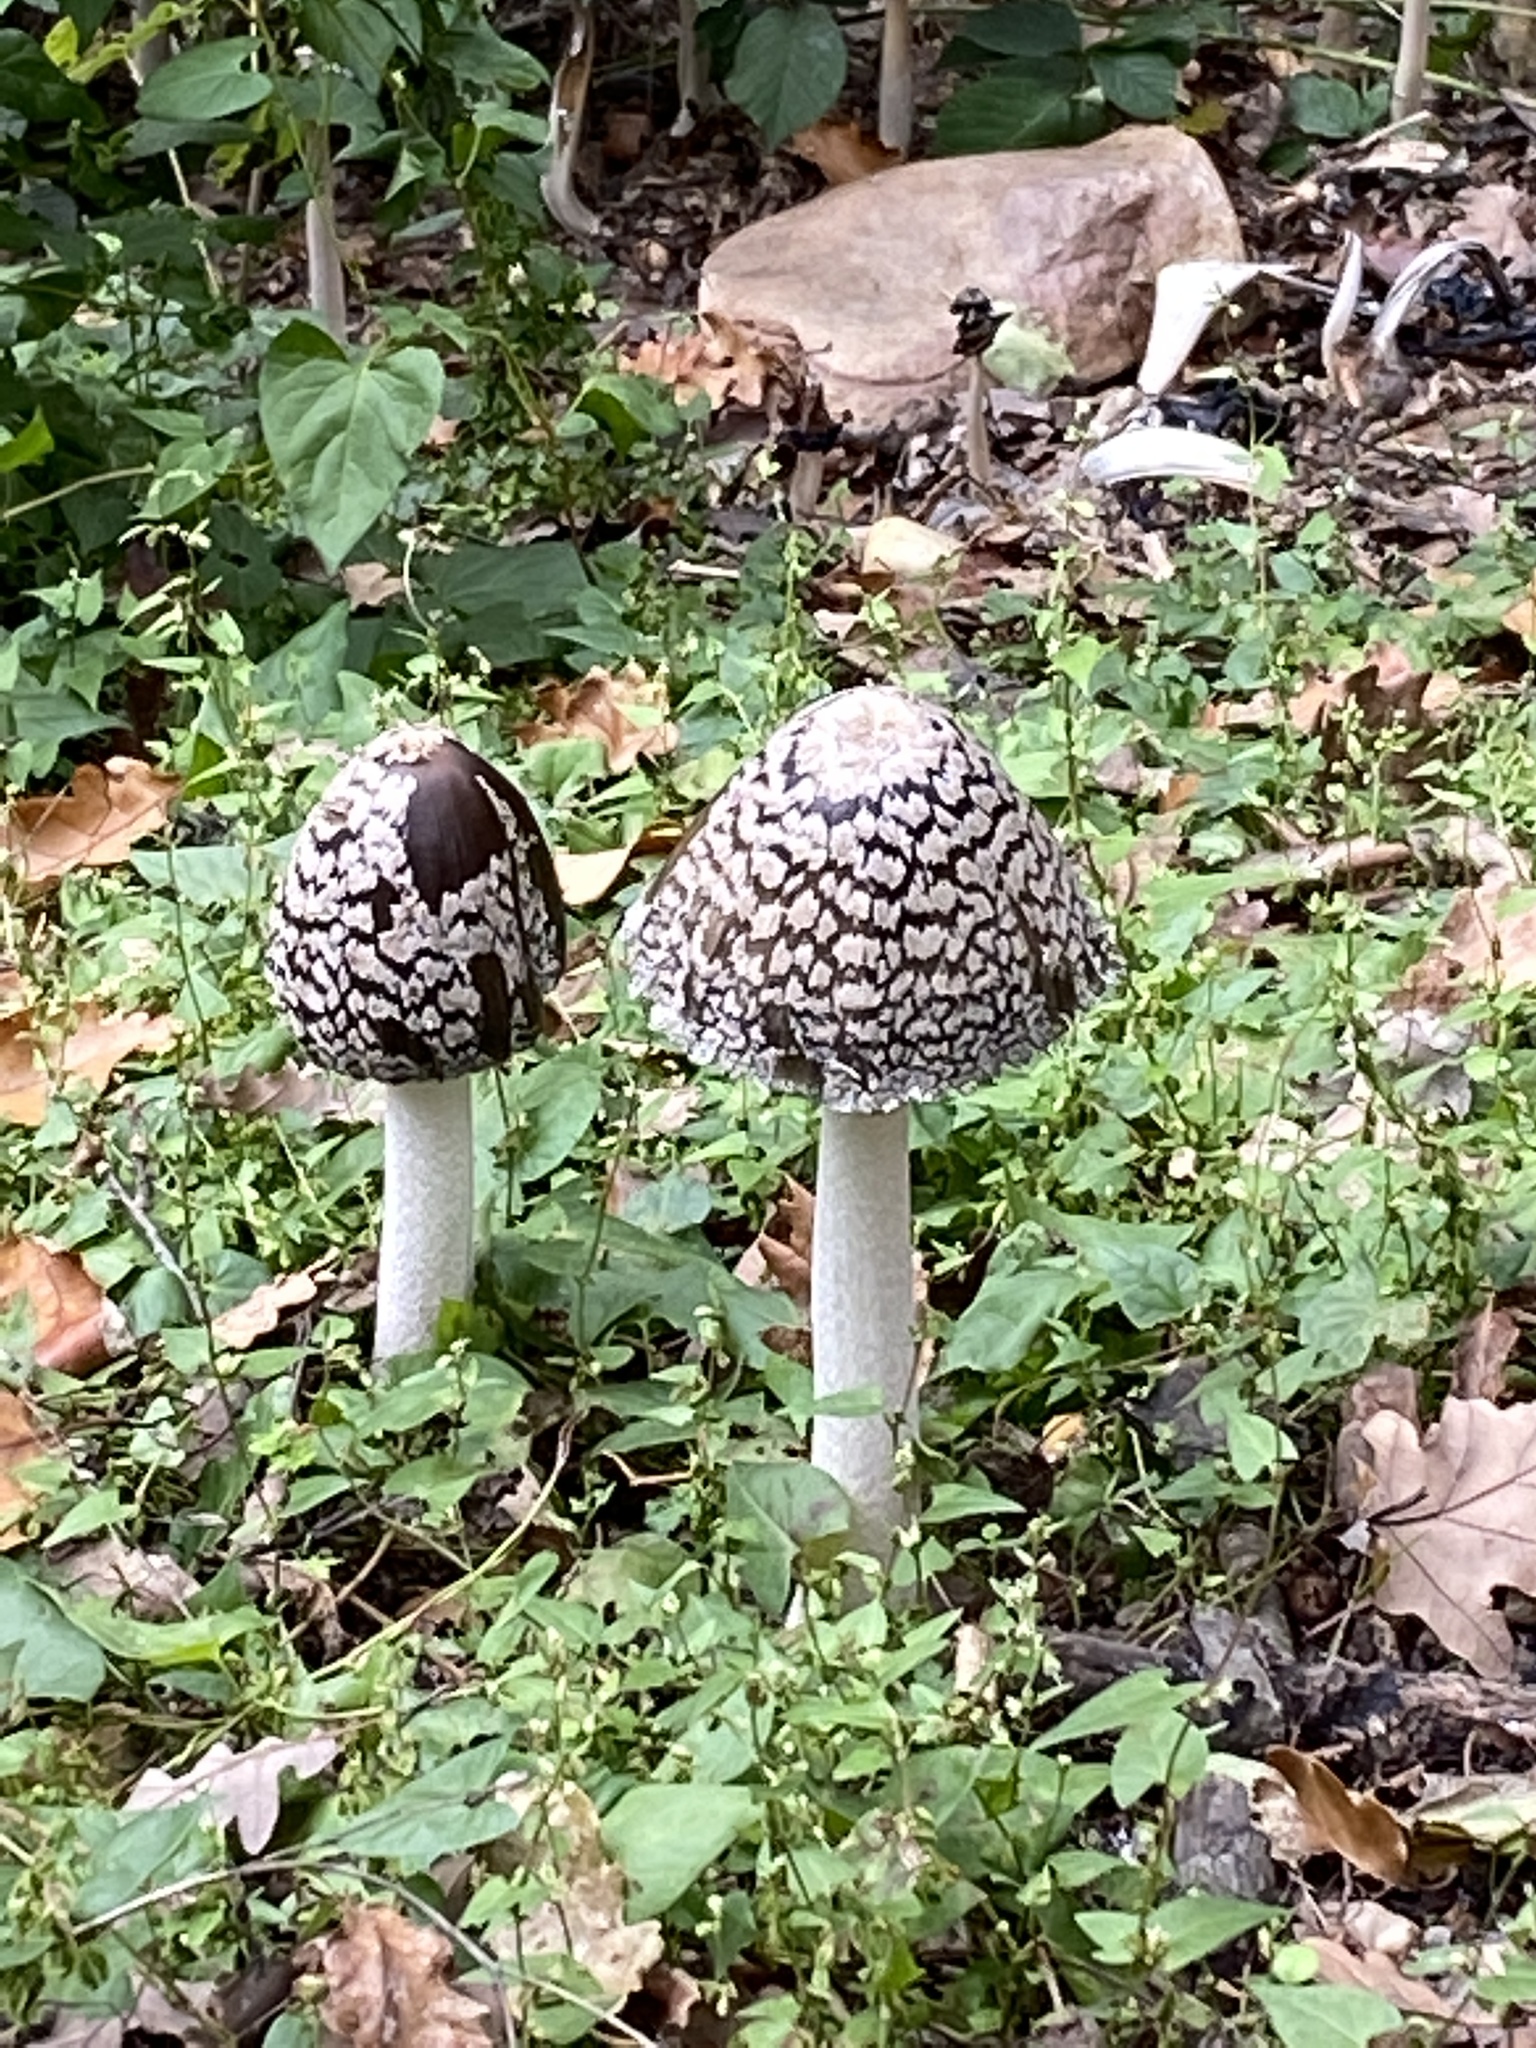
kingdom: Fungi
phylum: Basidiomycota
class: Agaricomycetes
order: Agaricales
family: Psathyrellaceae
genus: Coprinopsis
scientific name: Coprinopsis picacea
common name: Magpie inkcap
